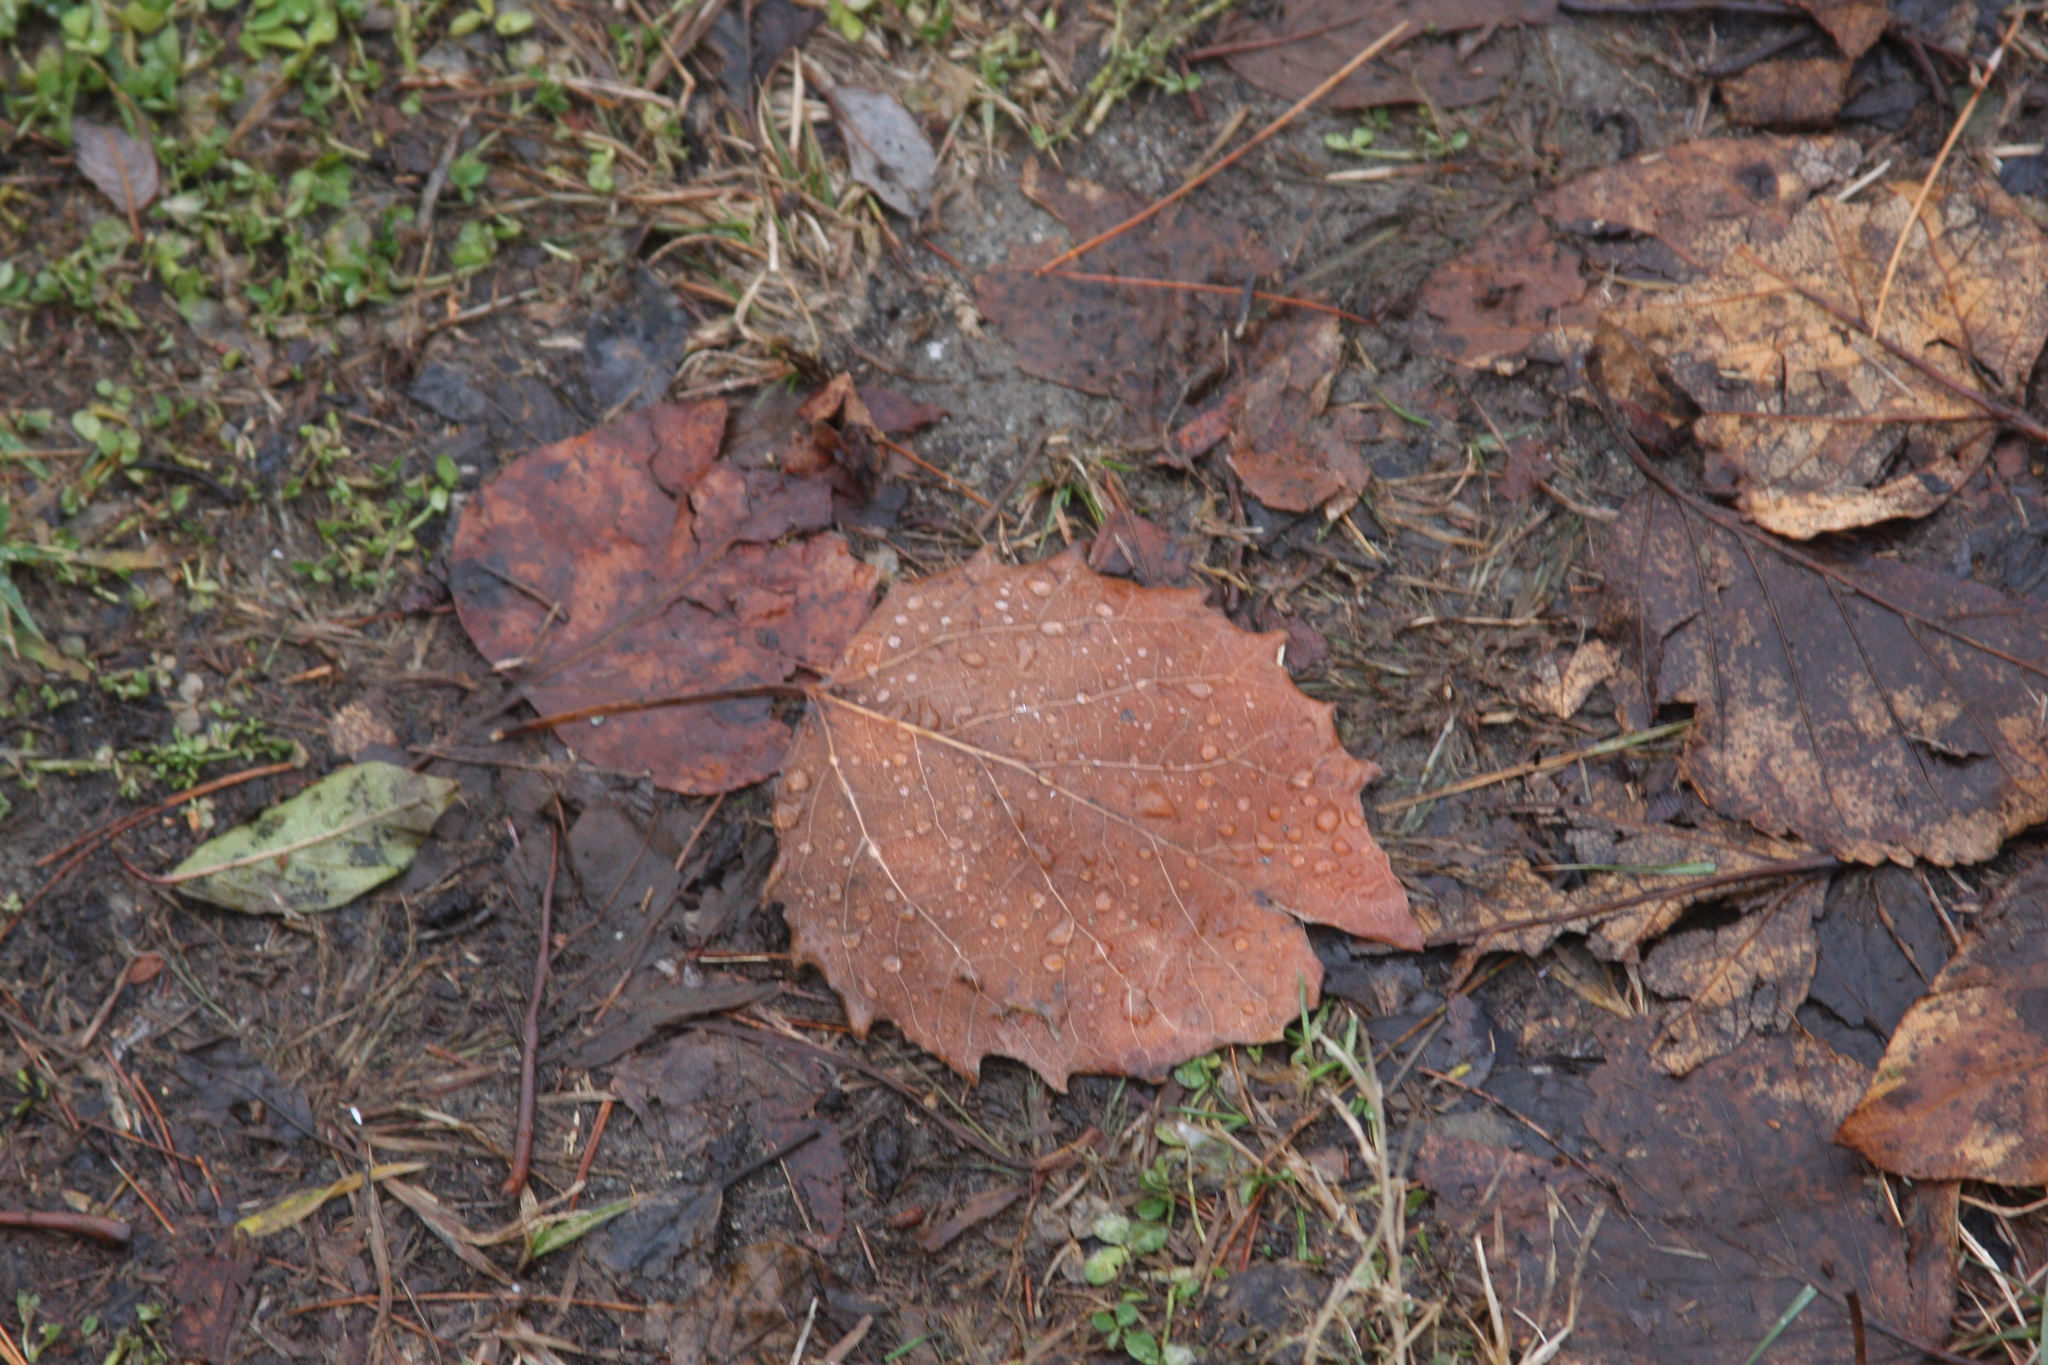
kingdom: Plantae
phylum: Tracheophyta
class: Magnoliopsida
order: Malpighiales
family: Salicaceae
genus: Populus
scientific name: Populus grandidentata
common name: Bigtooth aspen
